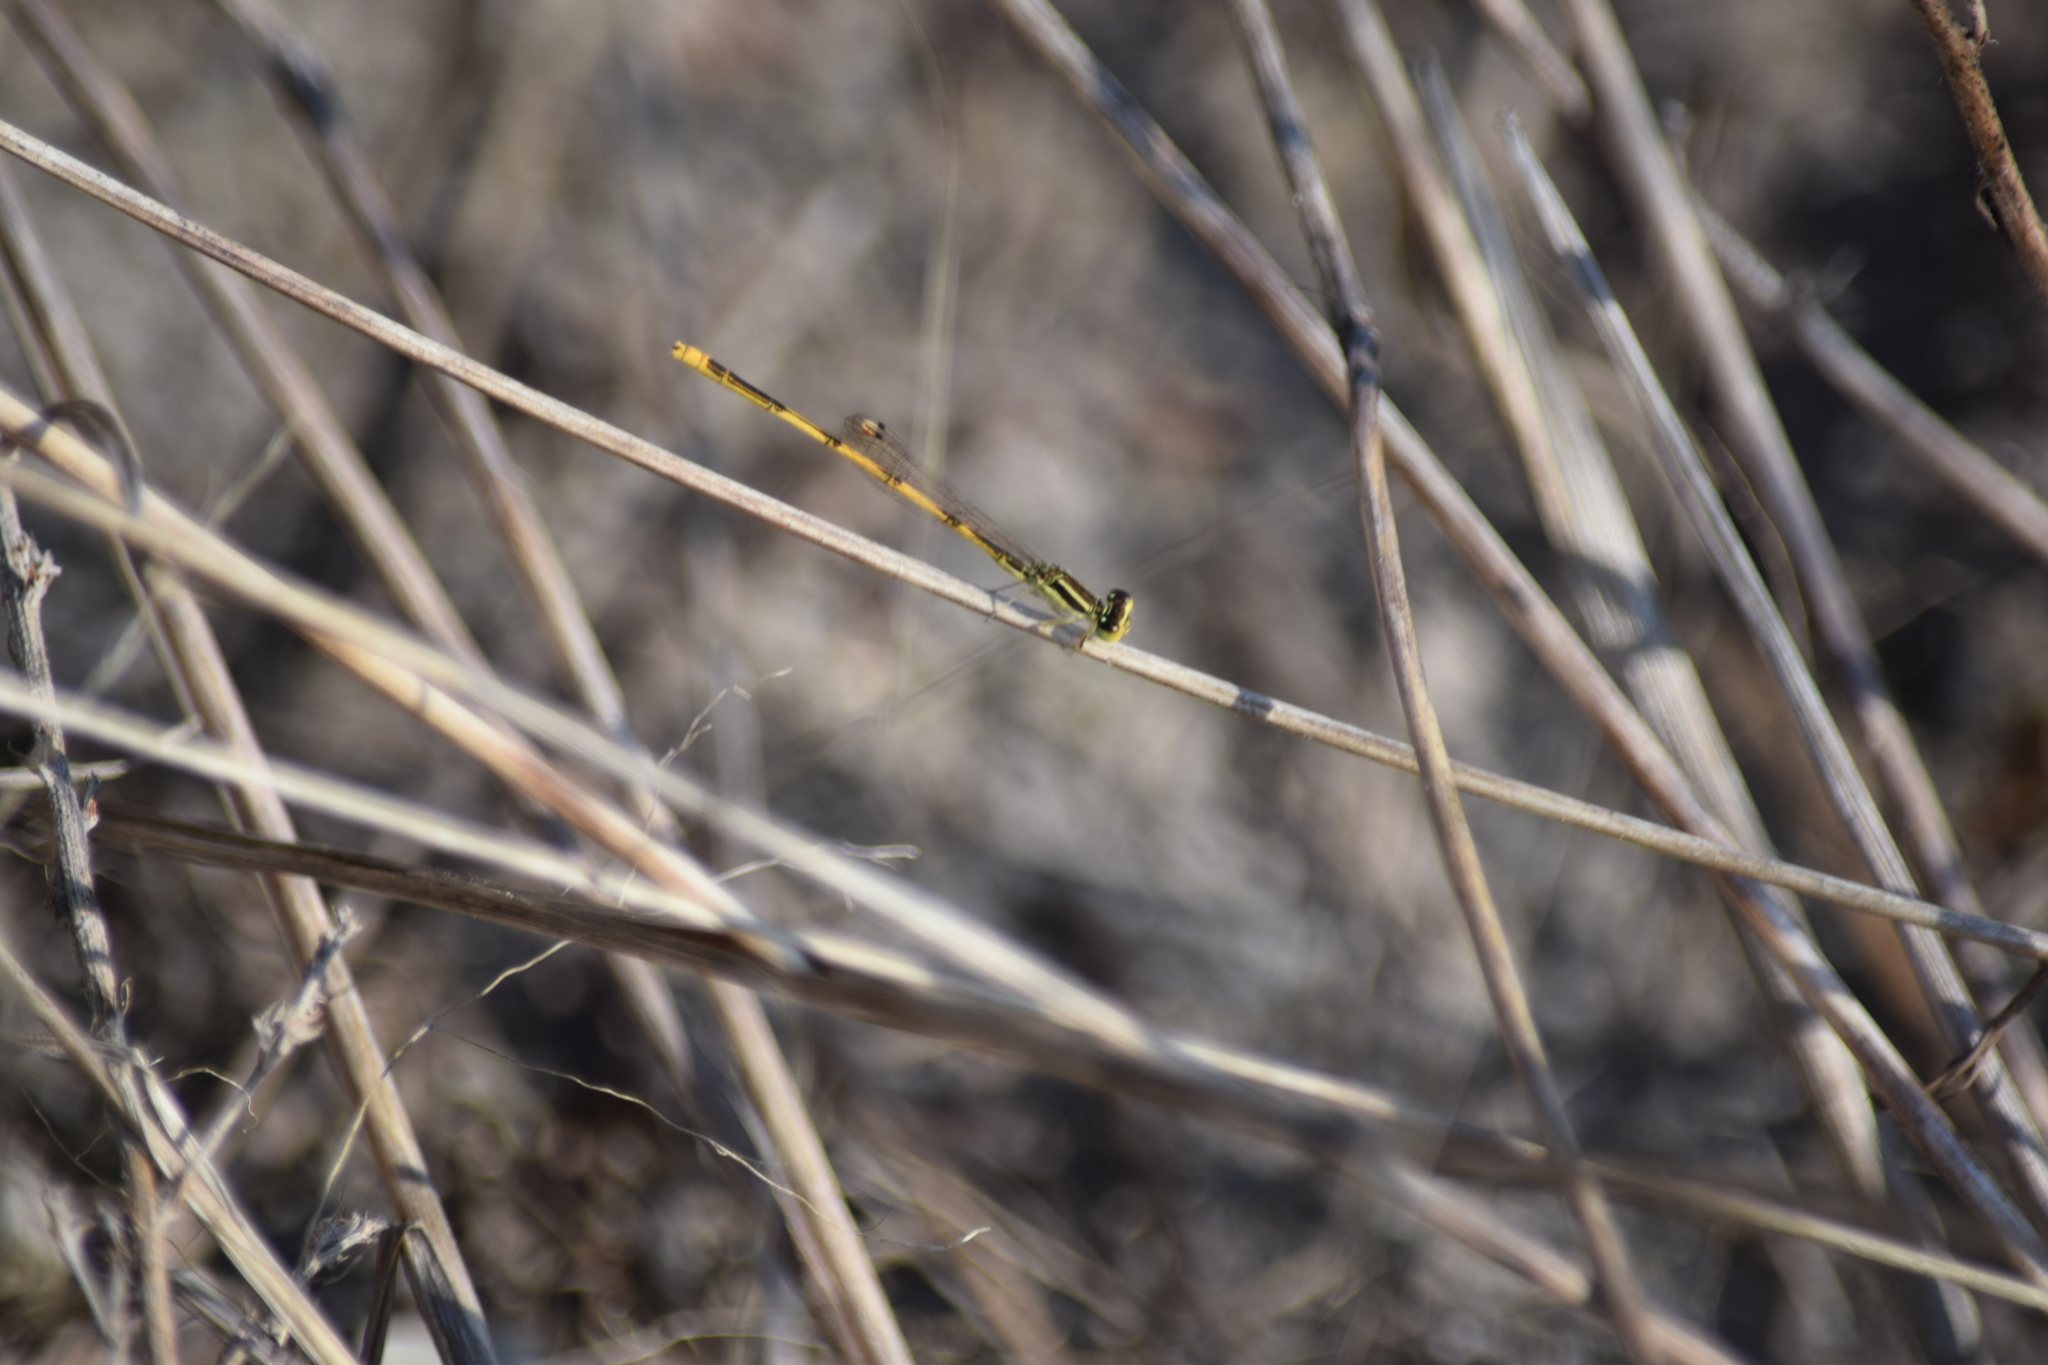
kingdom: Animalia
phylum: Arthropoda
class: Insecta
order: Odonata
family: Coenagrionidae
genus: Ischnura
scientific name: Ischnura hastata
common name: Citrine forktail
